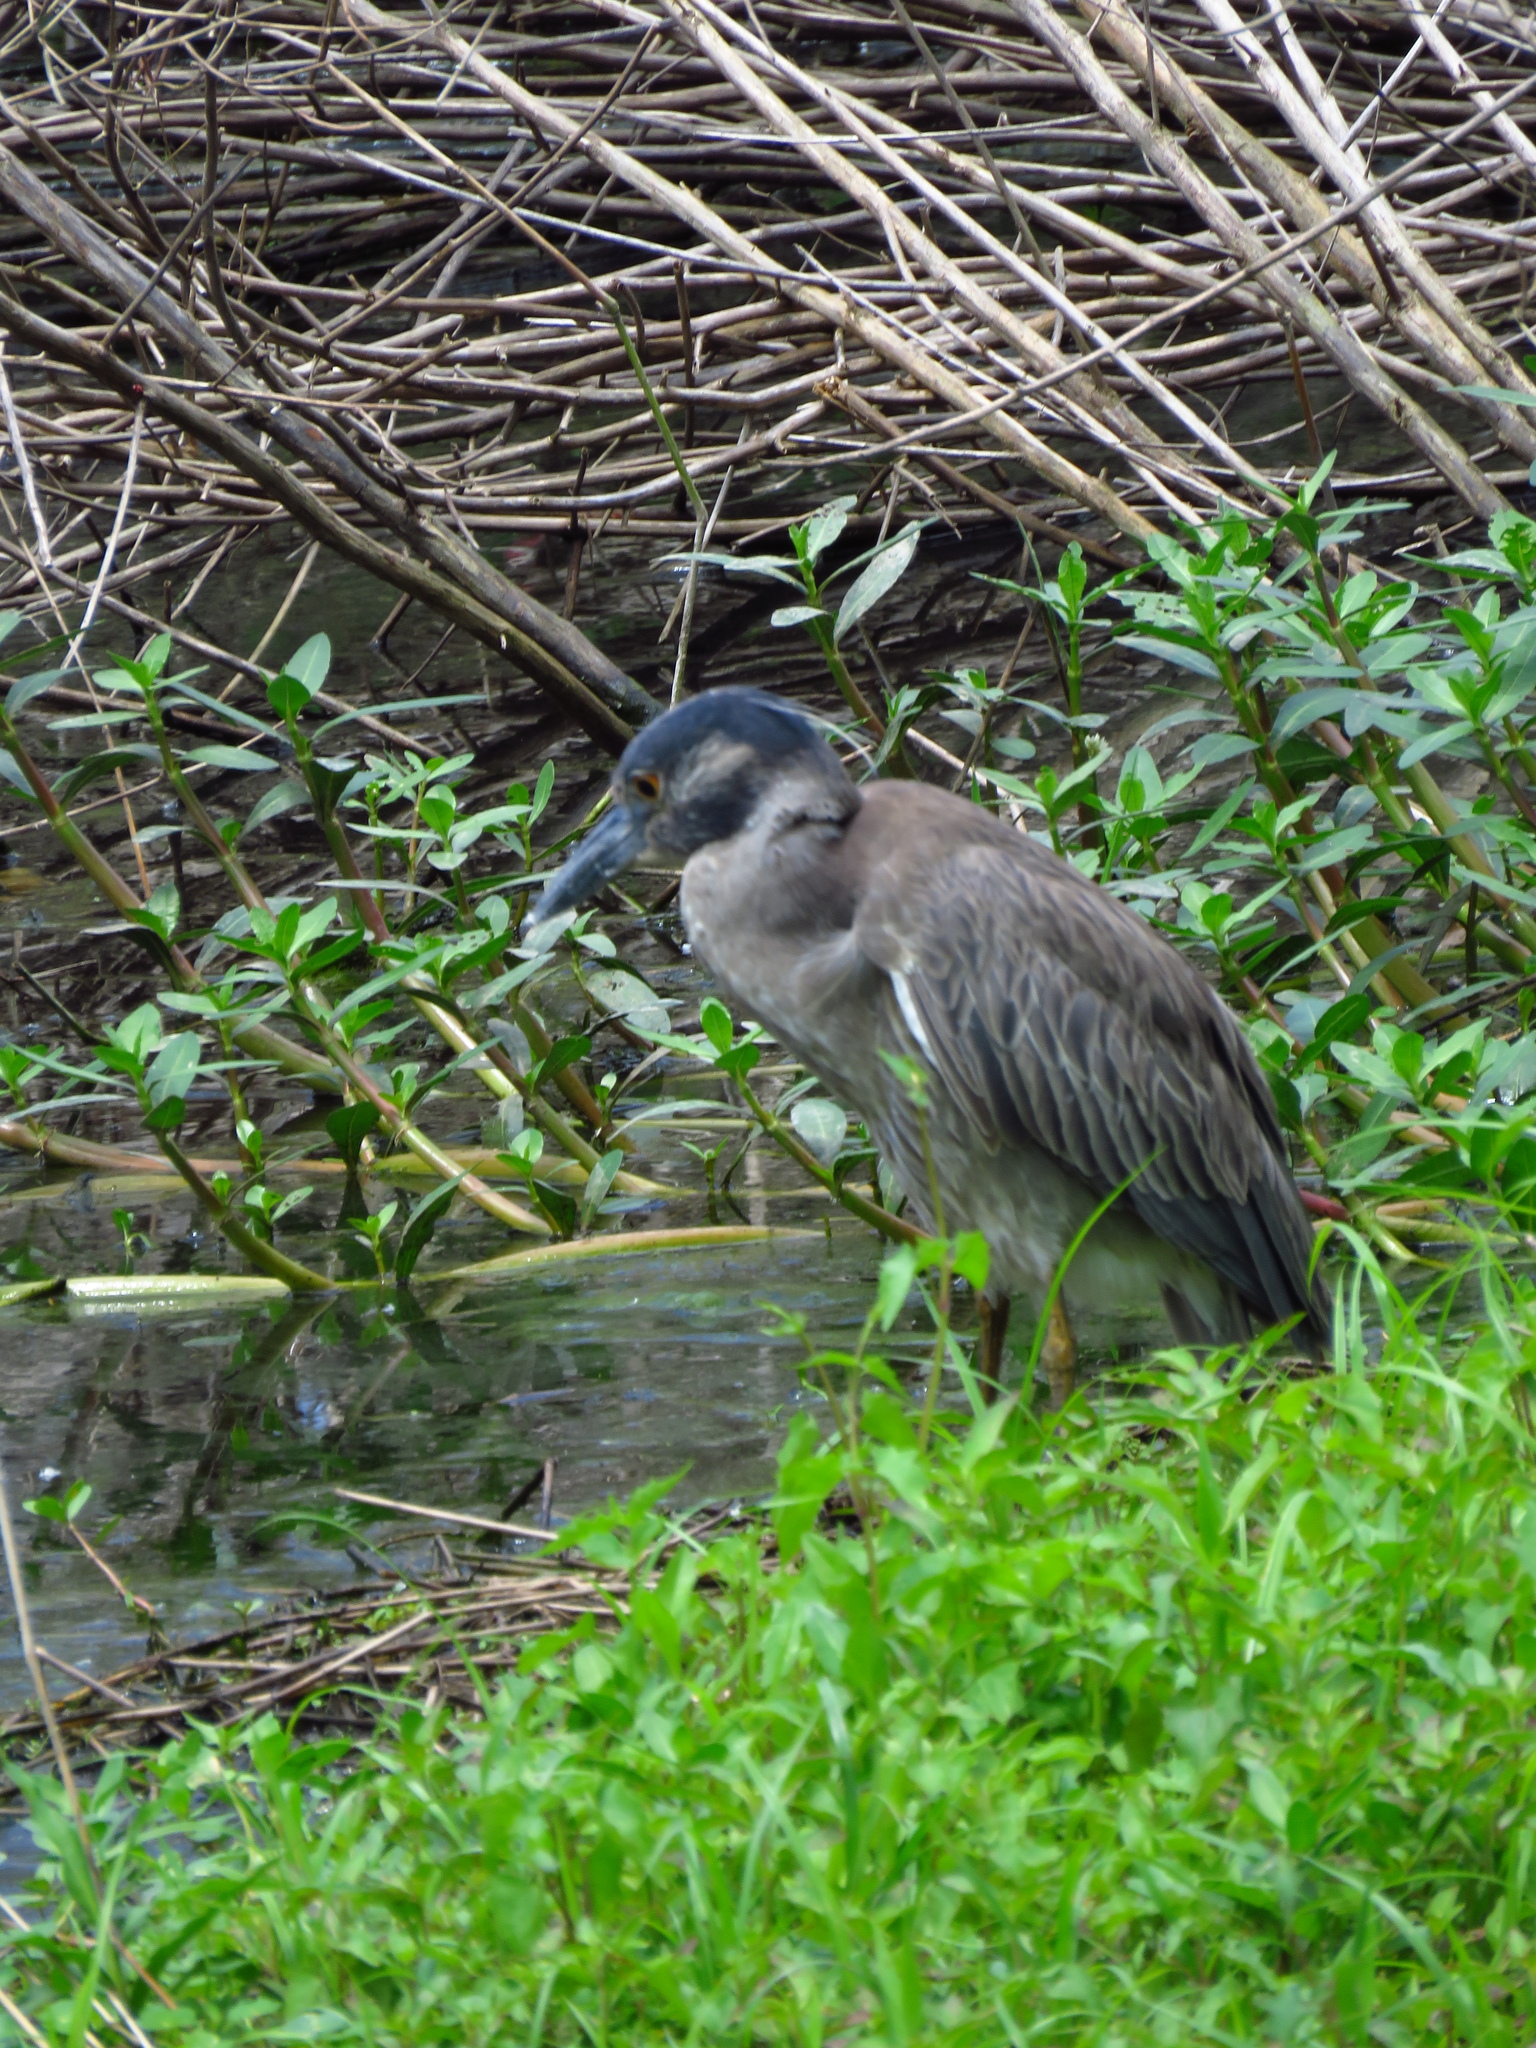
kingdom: Animalia
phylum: Chordata
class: Aves
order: Pelecaniformes
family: Ardeidae
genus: Nyctanassa
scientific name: Nyctanassa violacea
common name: Yellow-crowned night heron
